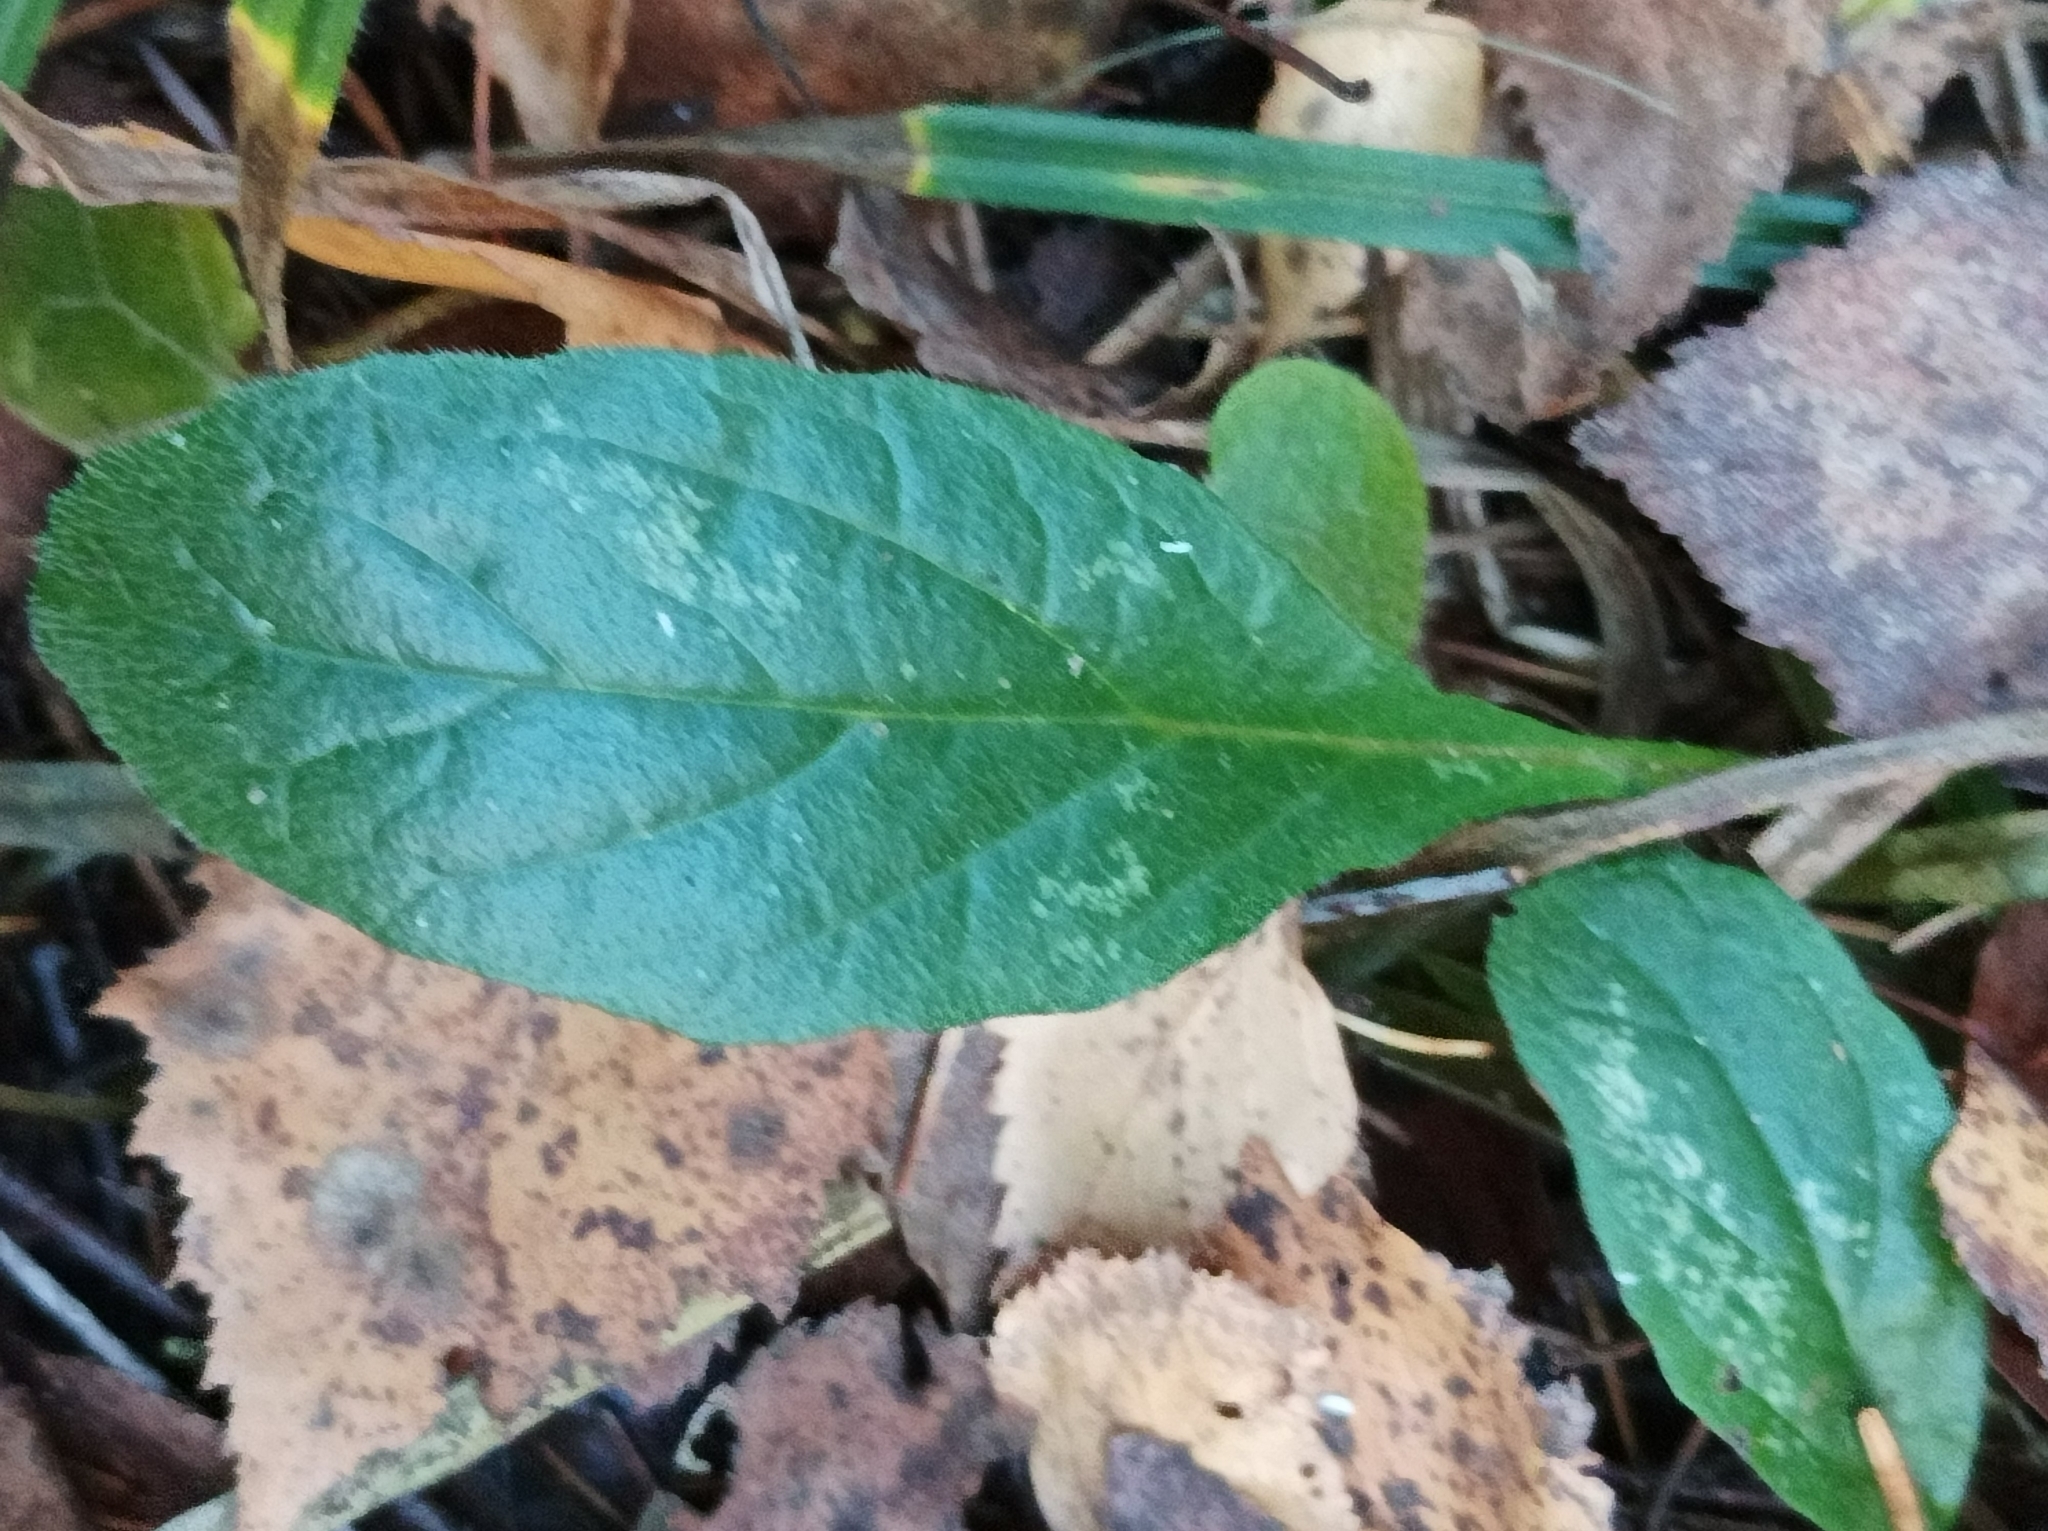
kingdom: Plantae
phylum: Tracheophyta
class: Magnoliopsida
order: Lamiales
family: Lamiaceae
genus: Ajuga
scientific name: Ajuga reptans
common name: Bugle
